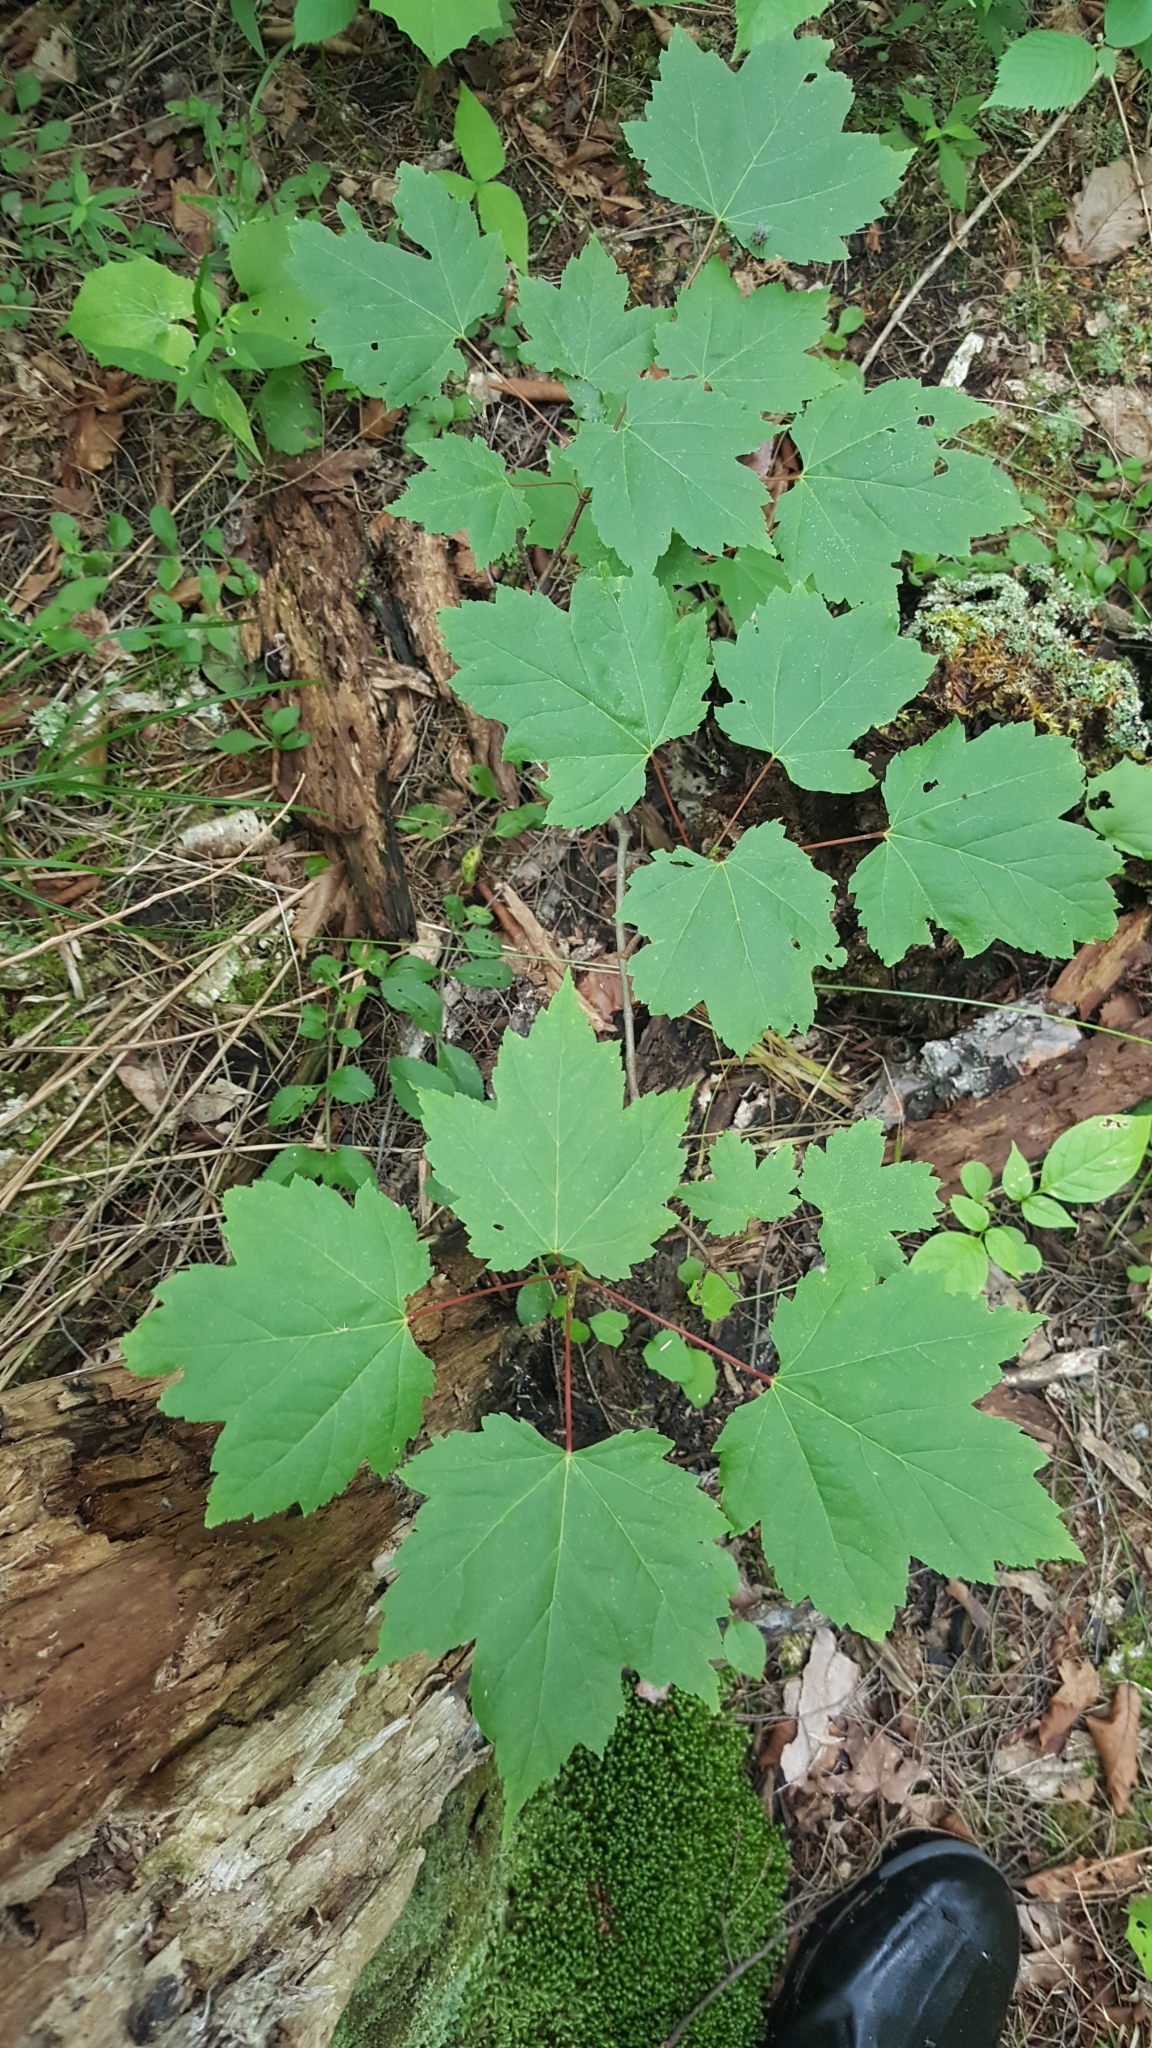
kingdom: Plantae
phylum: Tracheophyta
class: Magnoliopsida
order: Sapindales
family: Sapindaceae
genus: Acer
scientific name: Acer rubrum
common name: Red maple
